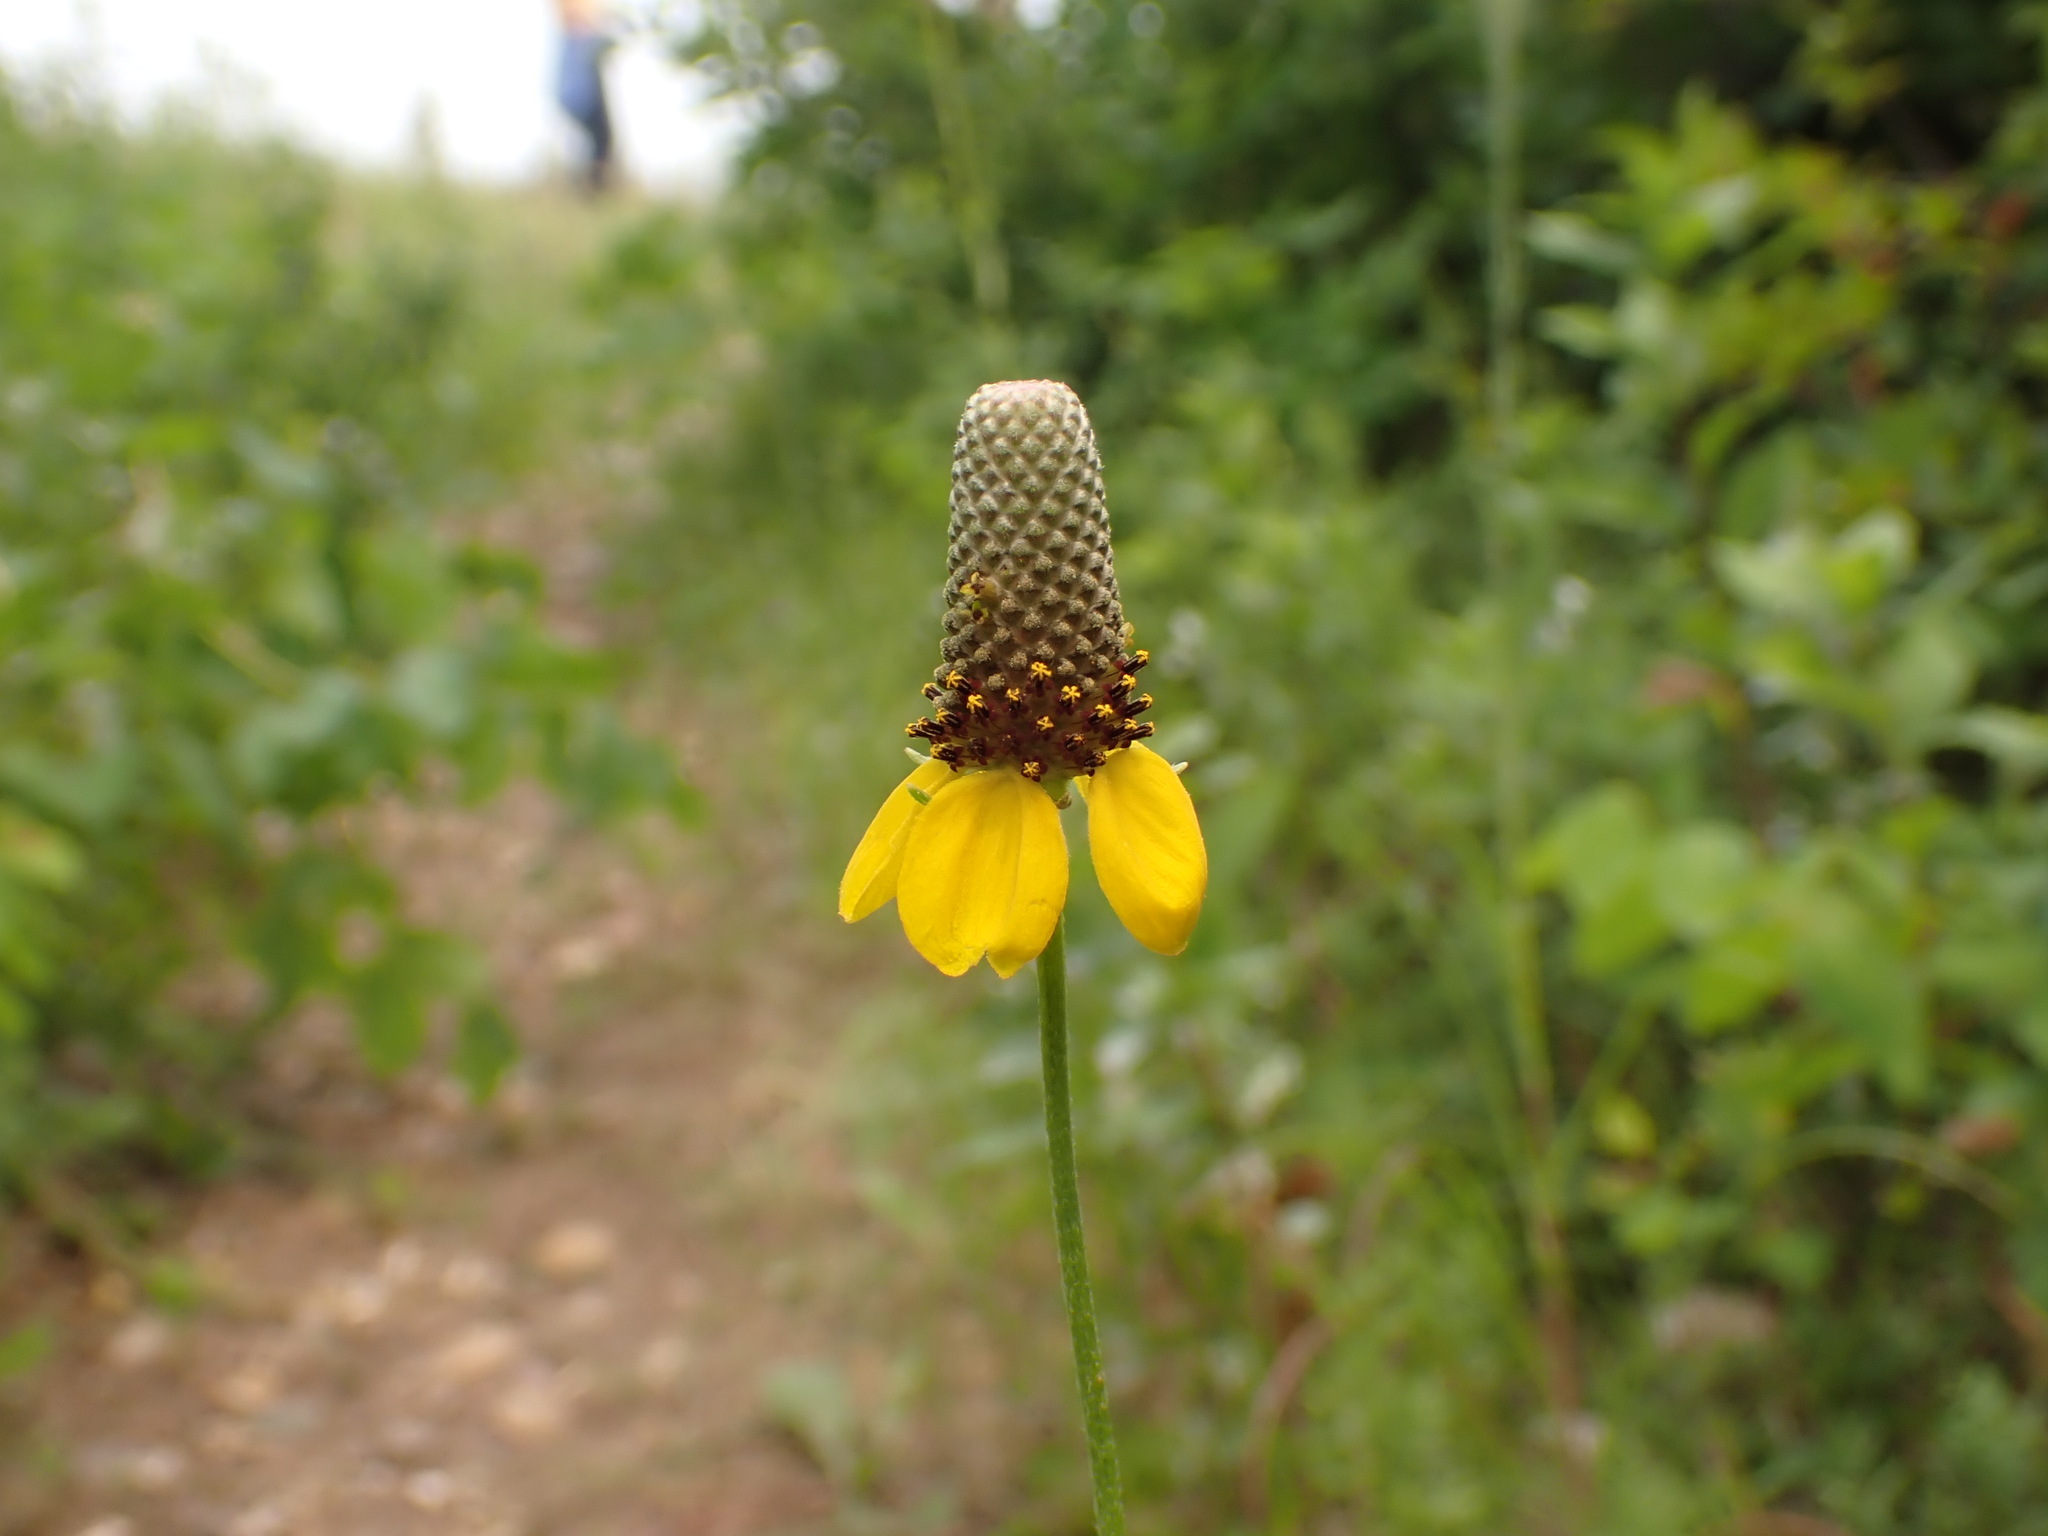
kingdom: Plantae
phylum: Tracheophyta
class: Magnoliopsida
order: Asterales
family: Asteraceae
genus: Ratibida
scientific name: Ratibida columnifera
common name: Prairie coneflower
